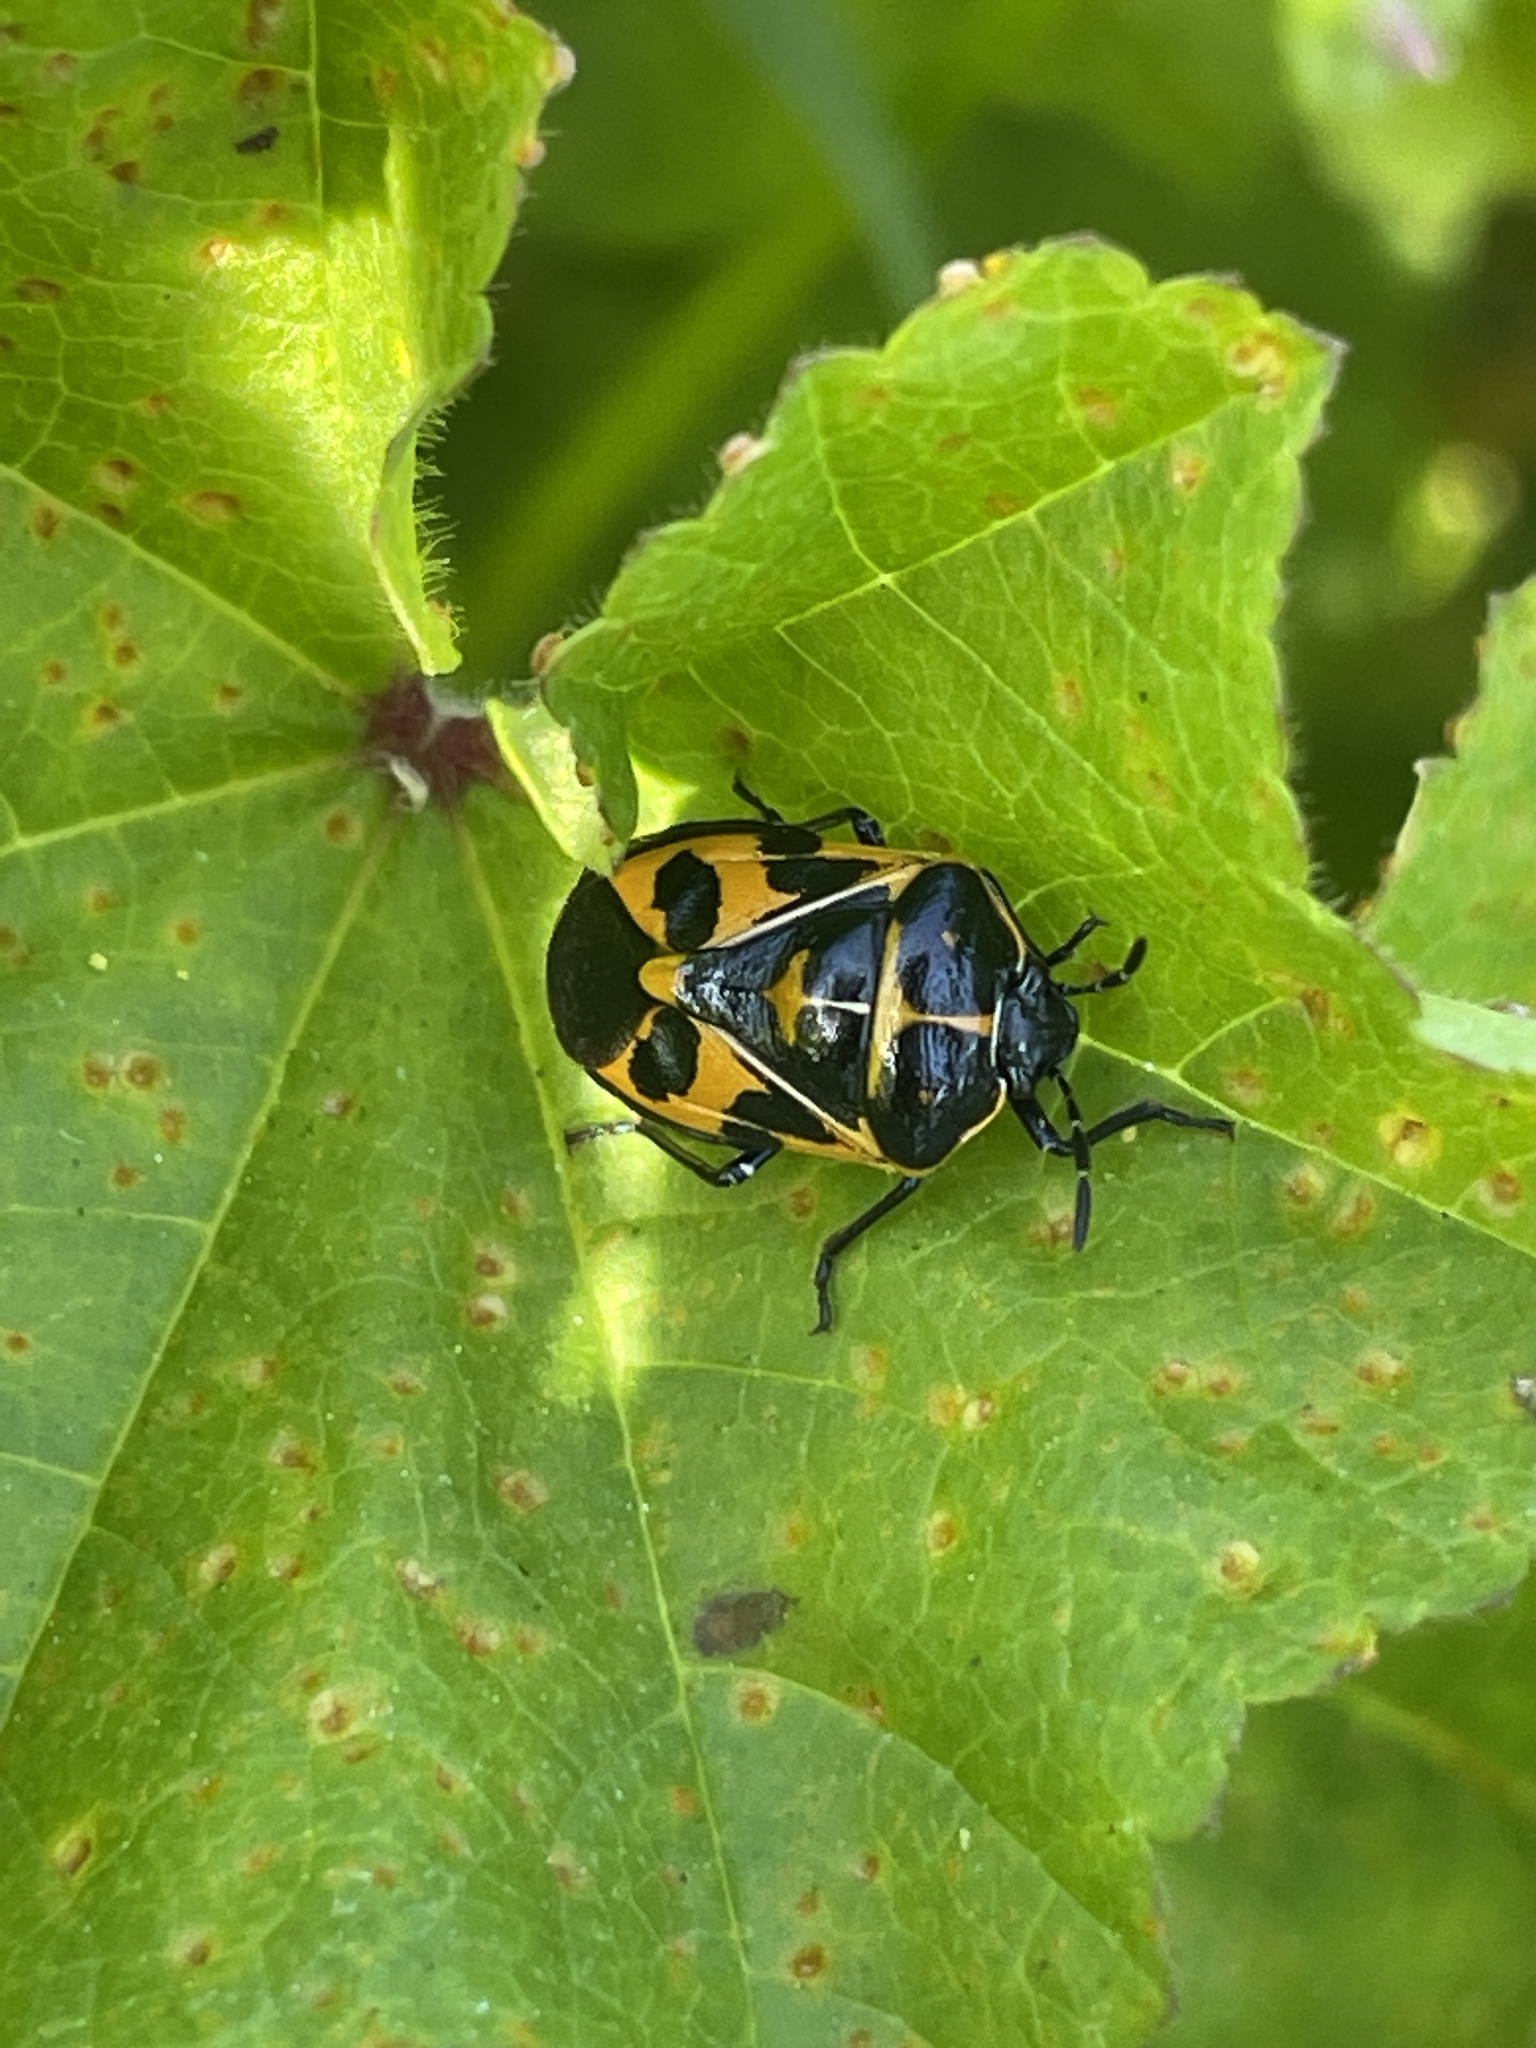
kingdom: Animalia
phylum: Arthropoda
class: Insecta
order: Hemiptera
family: Pentatomidae
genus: Murgantia
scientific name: Murgantia histrionica
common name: Harlequin bug
